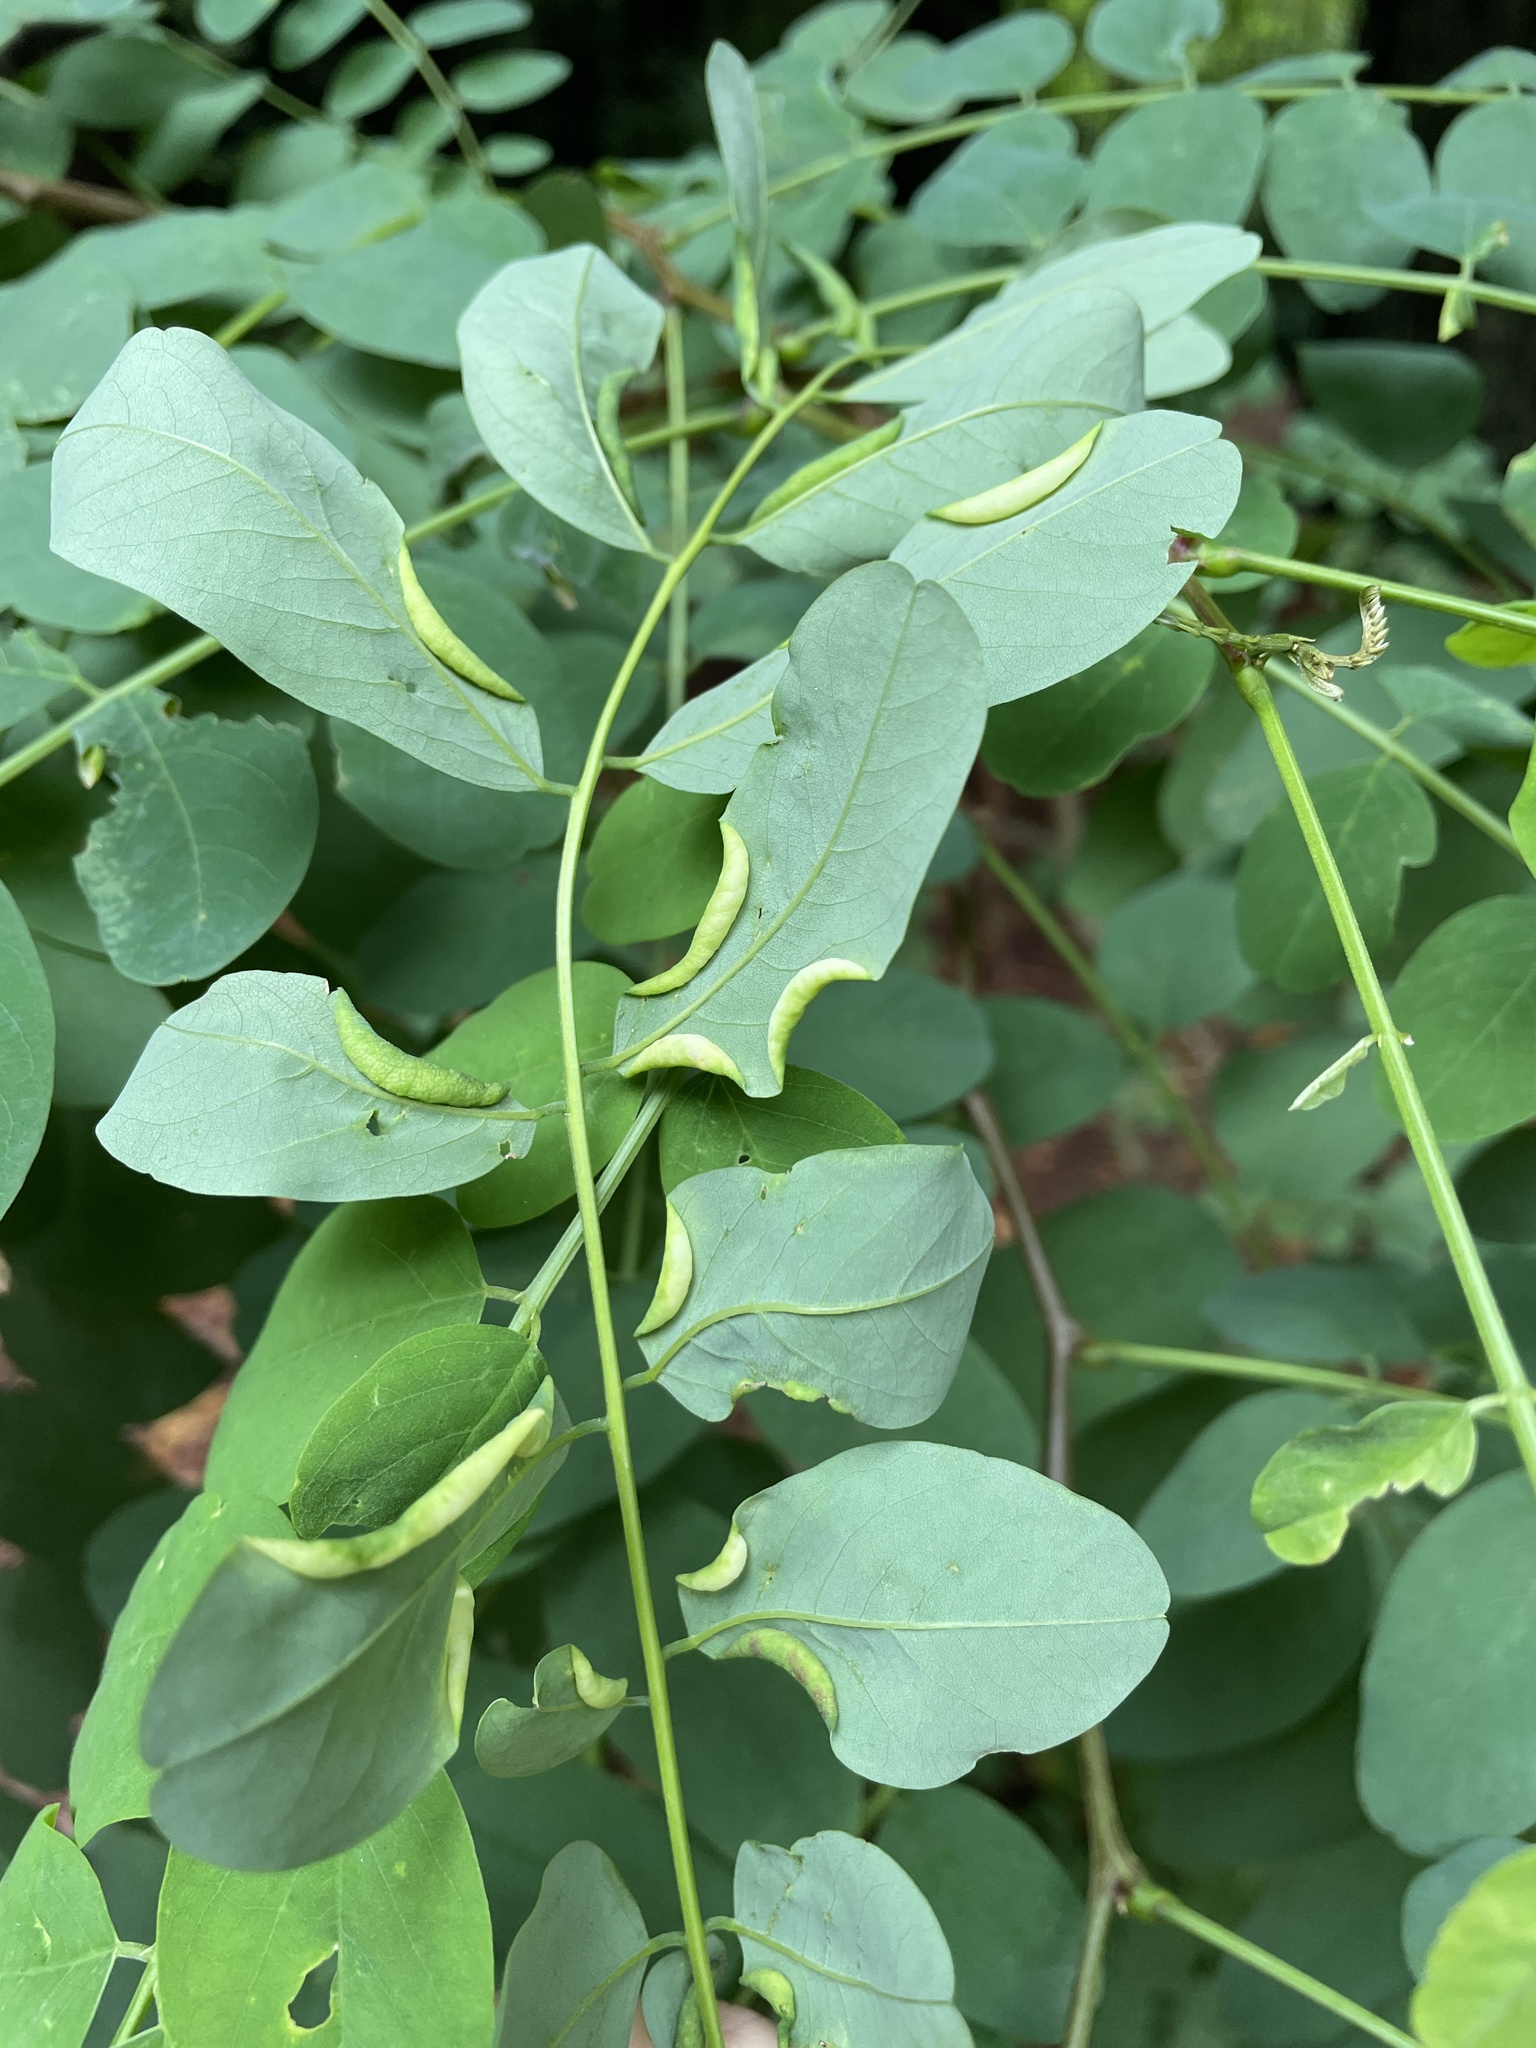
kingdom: Animalia
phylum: Arthropoda
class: Insecta
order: Diptera
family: Cecidomyiidae
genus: Obolodiplosis
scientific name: Obolodiplosis robiniae
